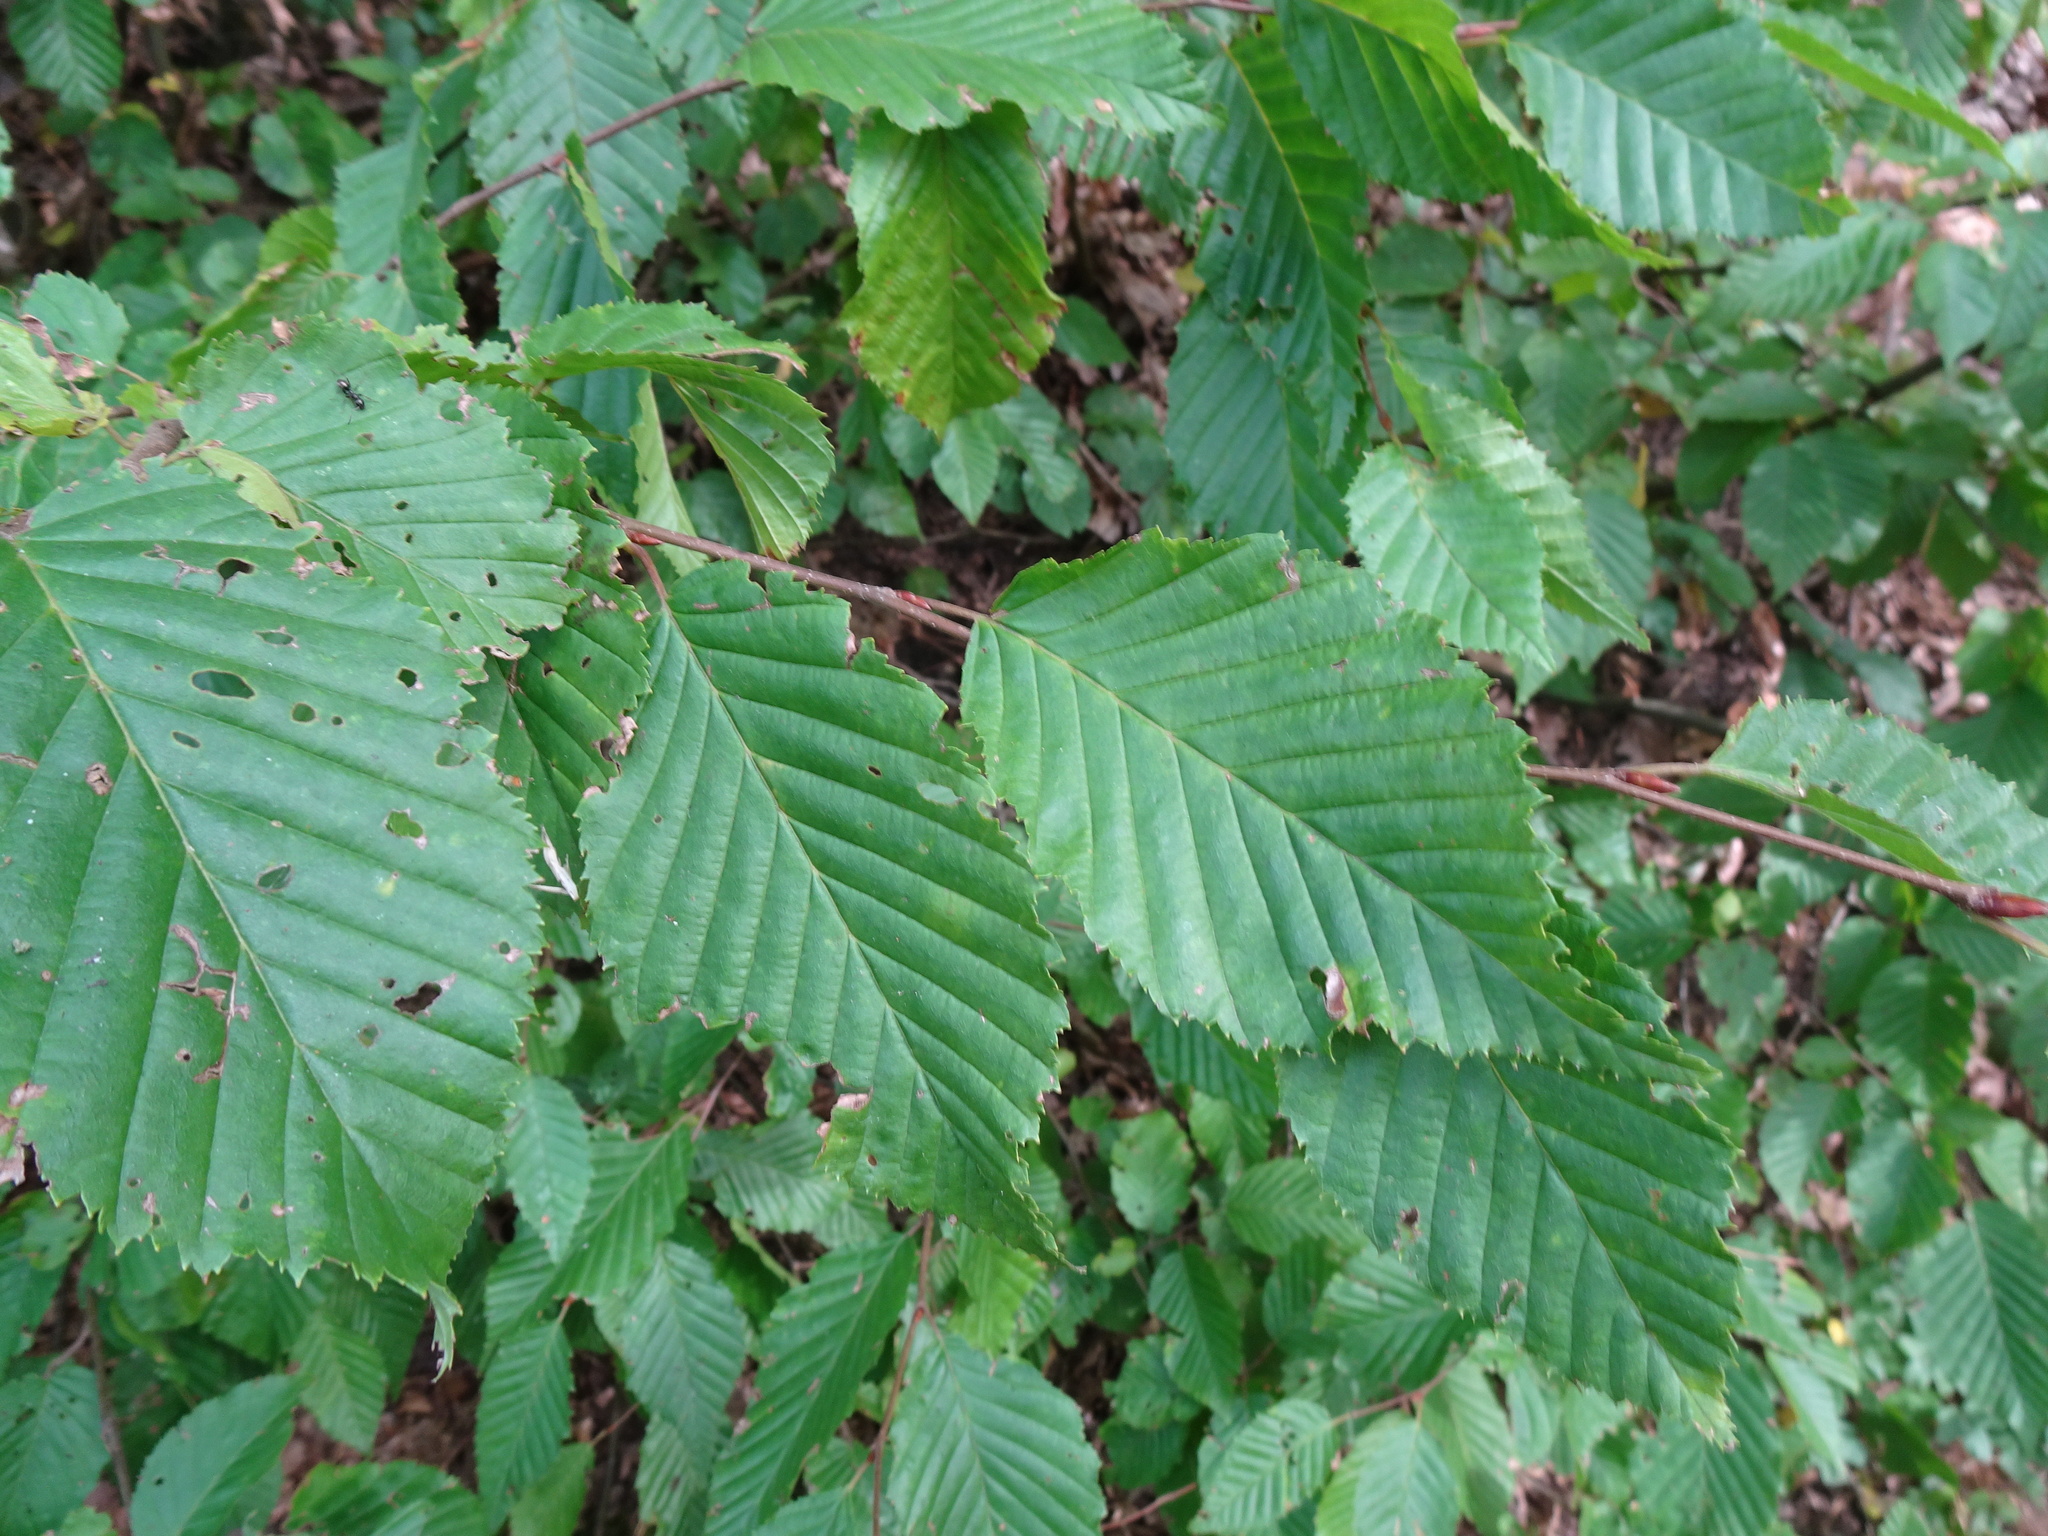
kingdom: Plantae
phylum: Tracheophyta
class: Magnoliopsida
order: Fagales
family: Betulaceae
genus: Carpinus
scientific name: Carpinus betulus
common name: Hornbeam
